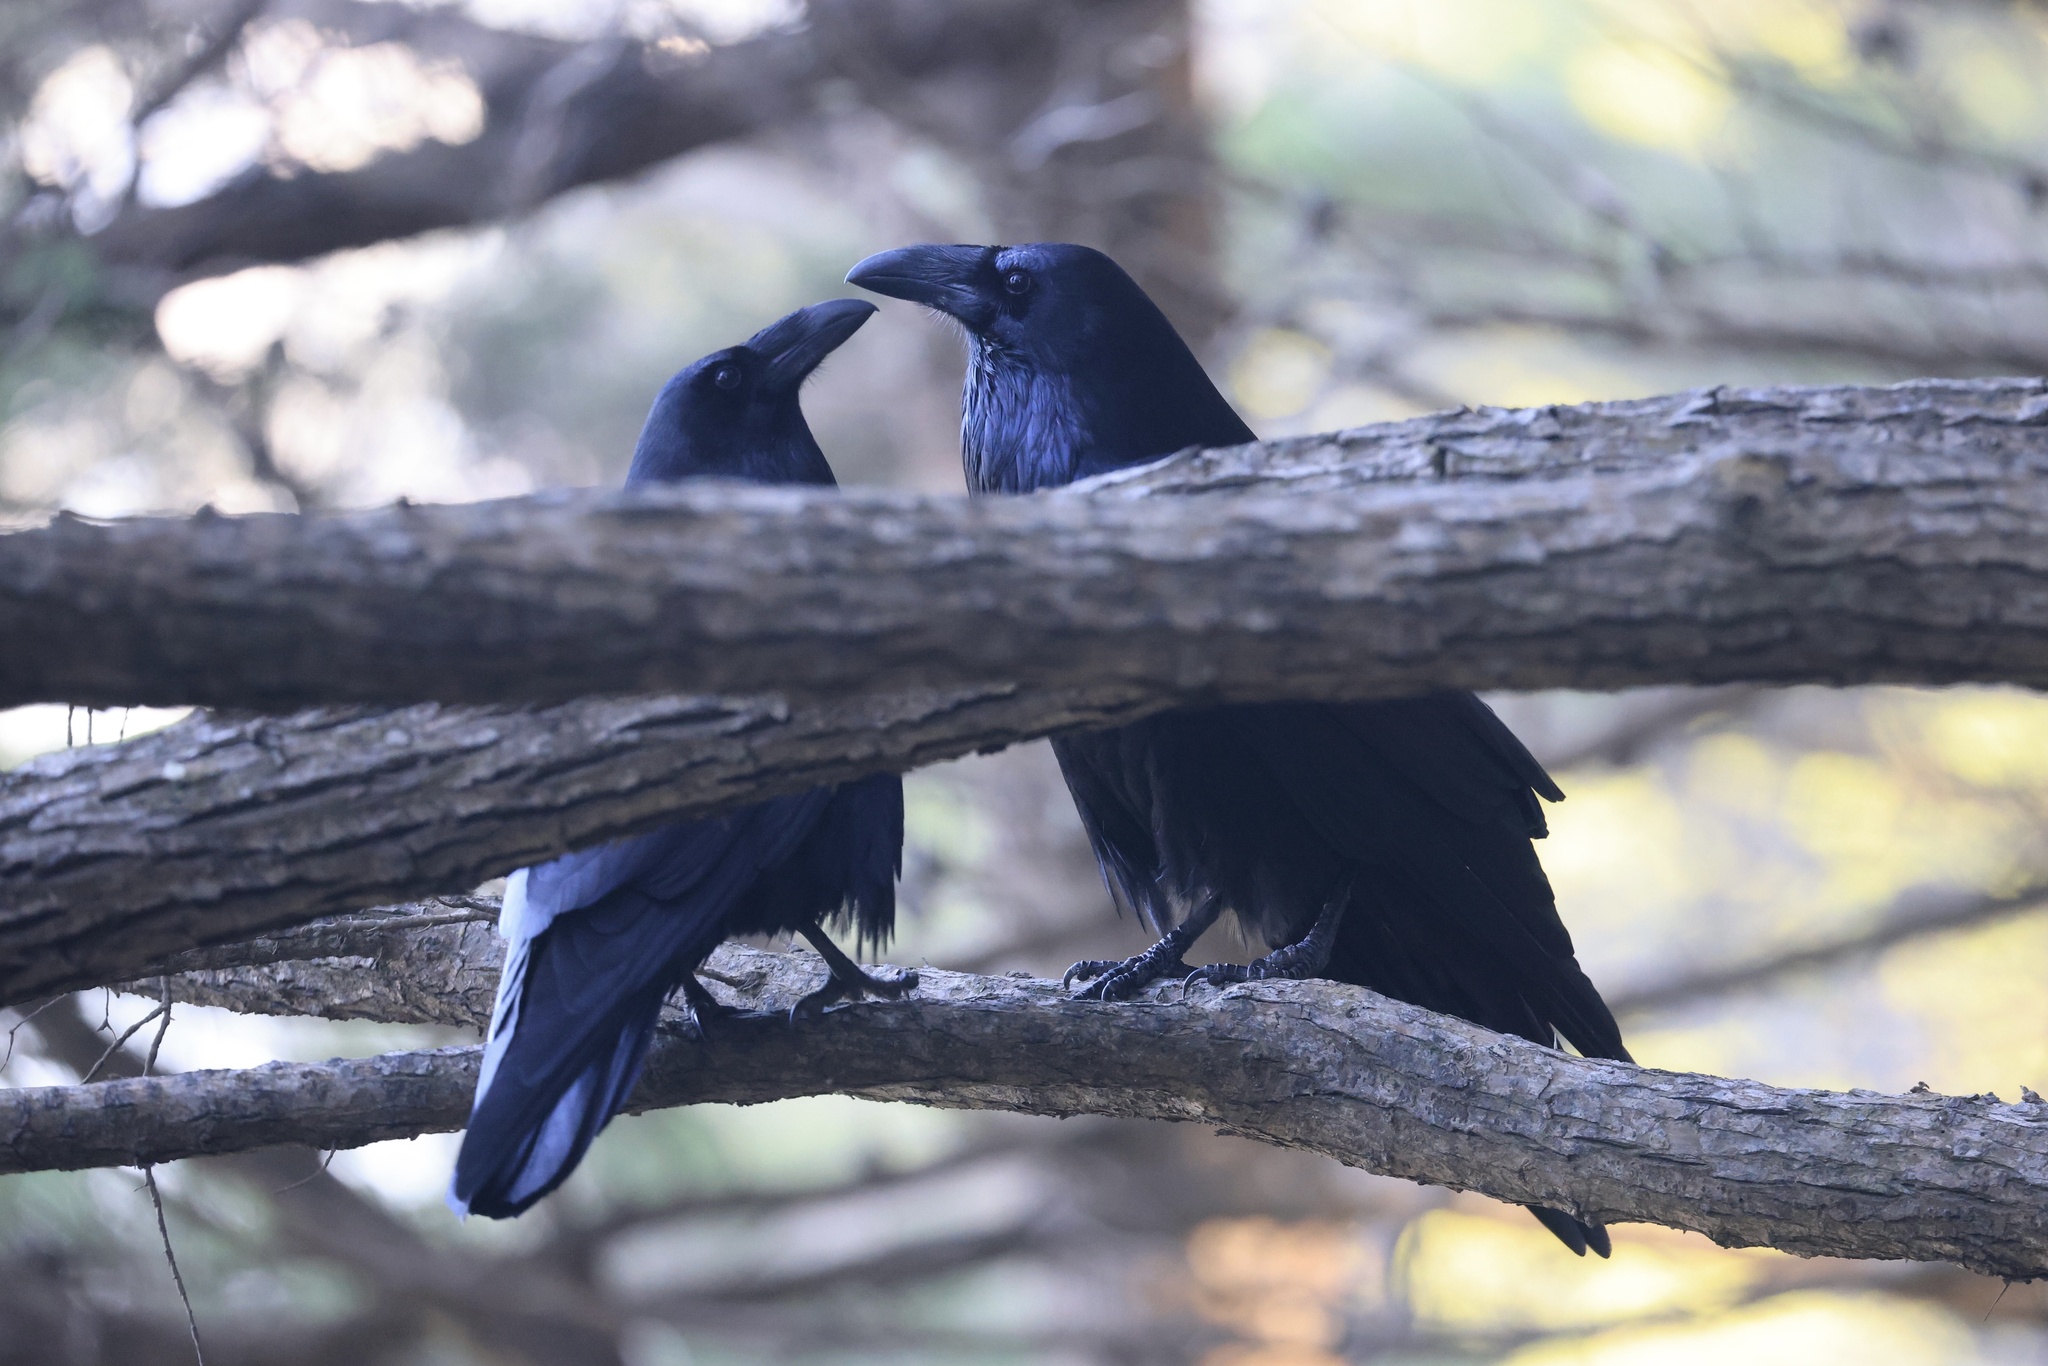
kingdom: Animalia
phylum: Chordata
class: Aves
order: Passeriformes
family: Corvidae
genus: Corvus
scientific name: Corvus corax
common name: Common raven
